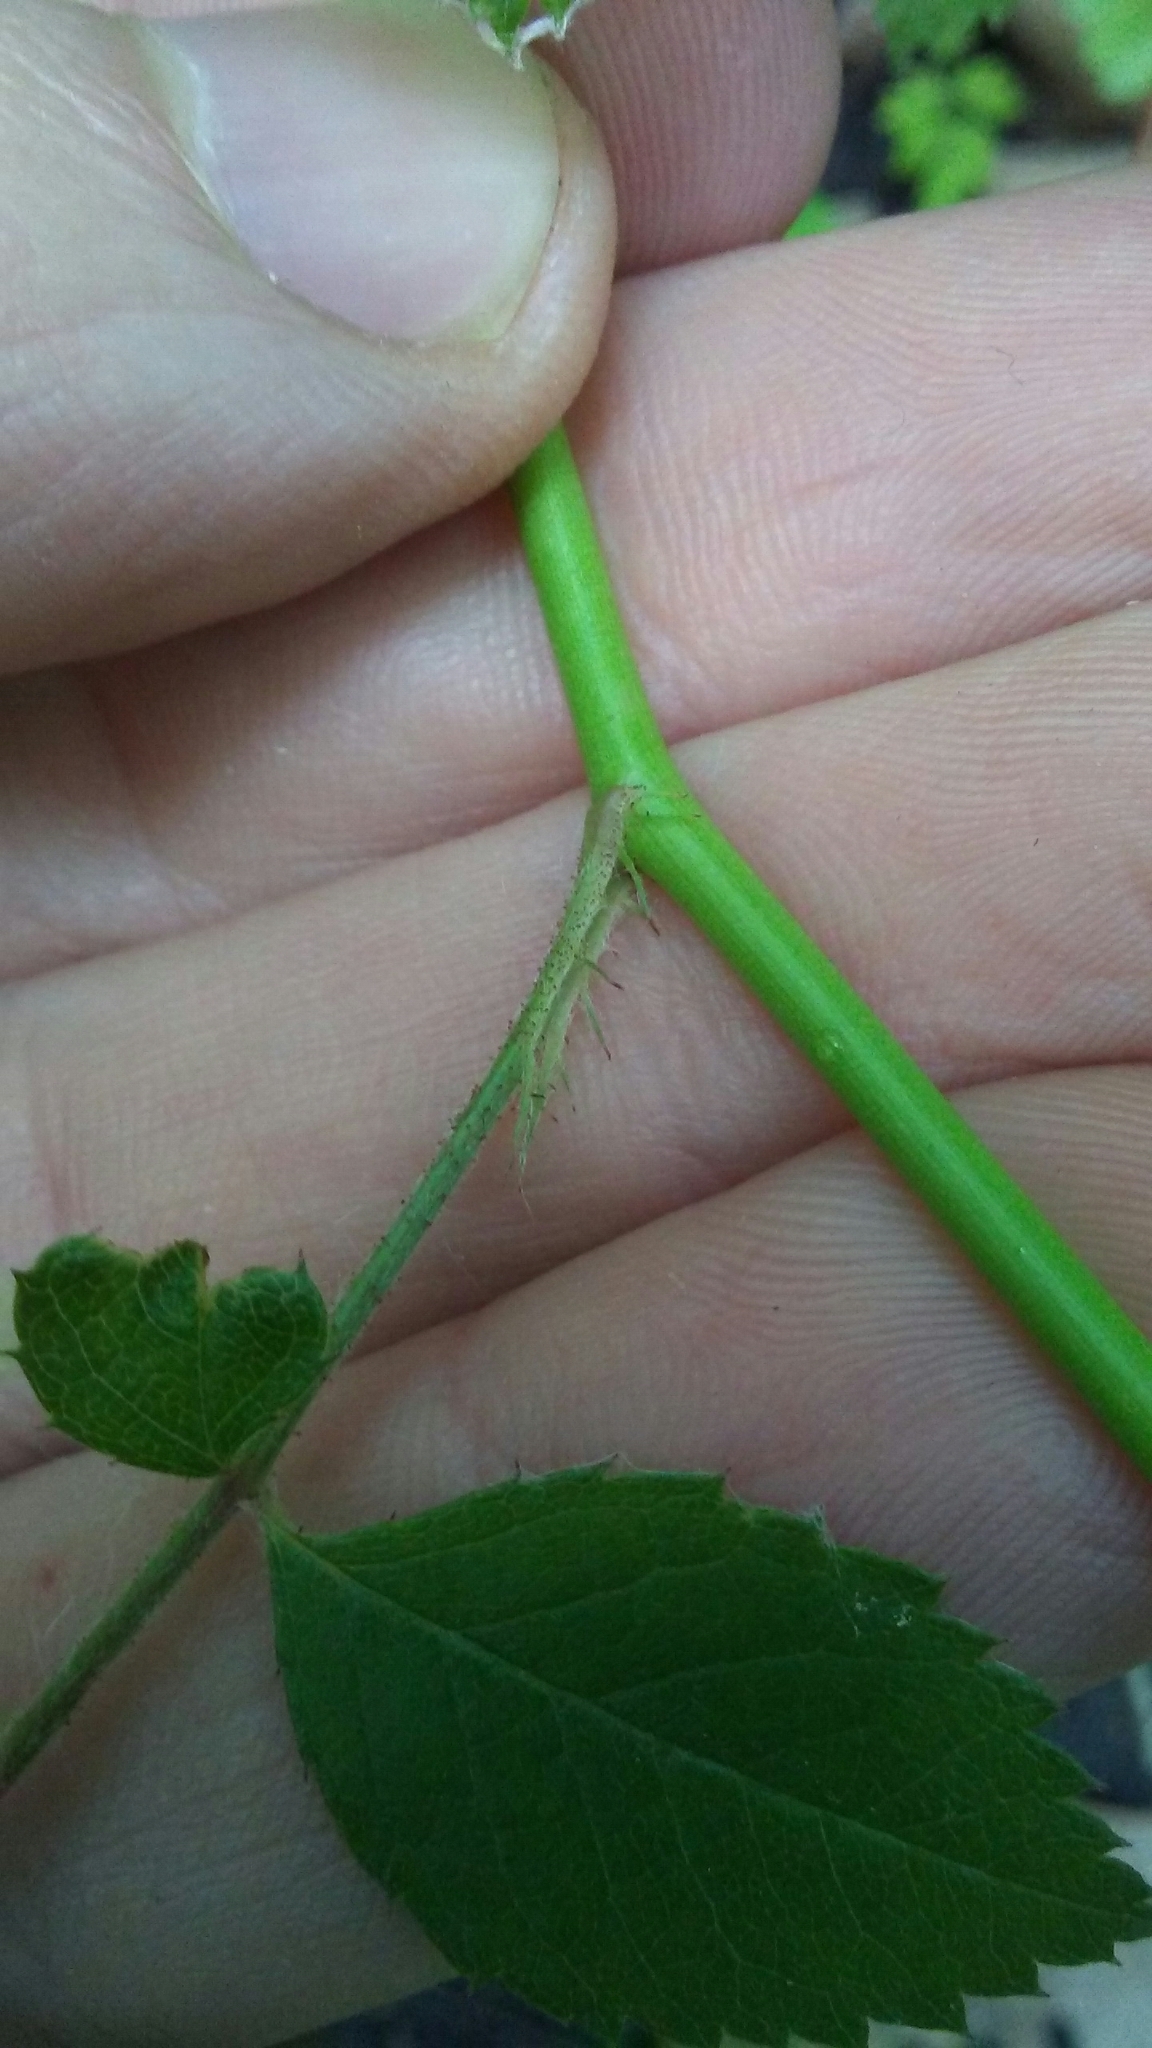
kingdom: Plantae
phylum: Tracheophyta
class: Magnoliopsida
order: Rosales
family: Rosaceae
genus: Rosa
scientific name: Rosa multiflora
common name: Multiflora rose
